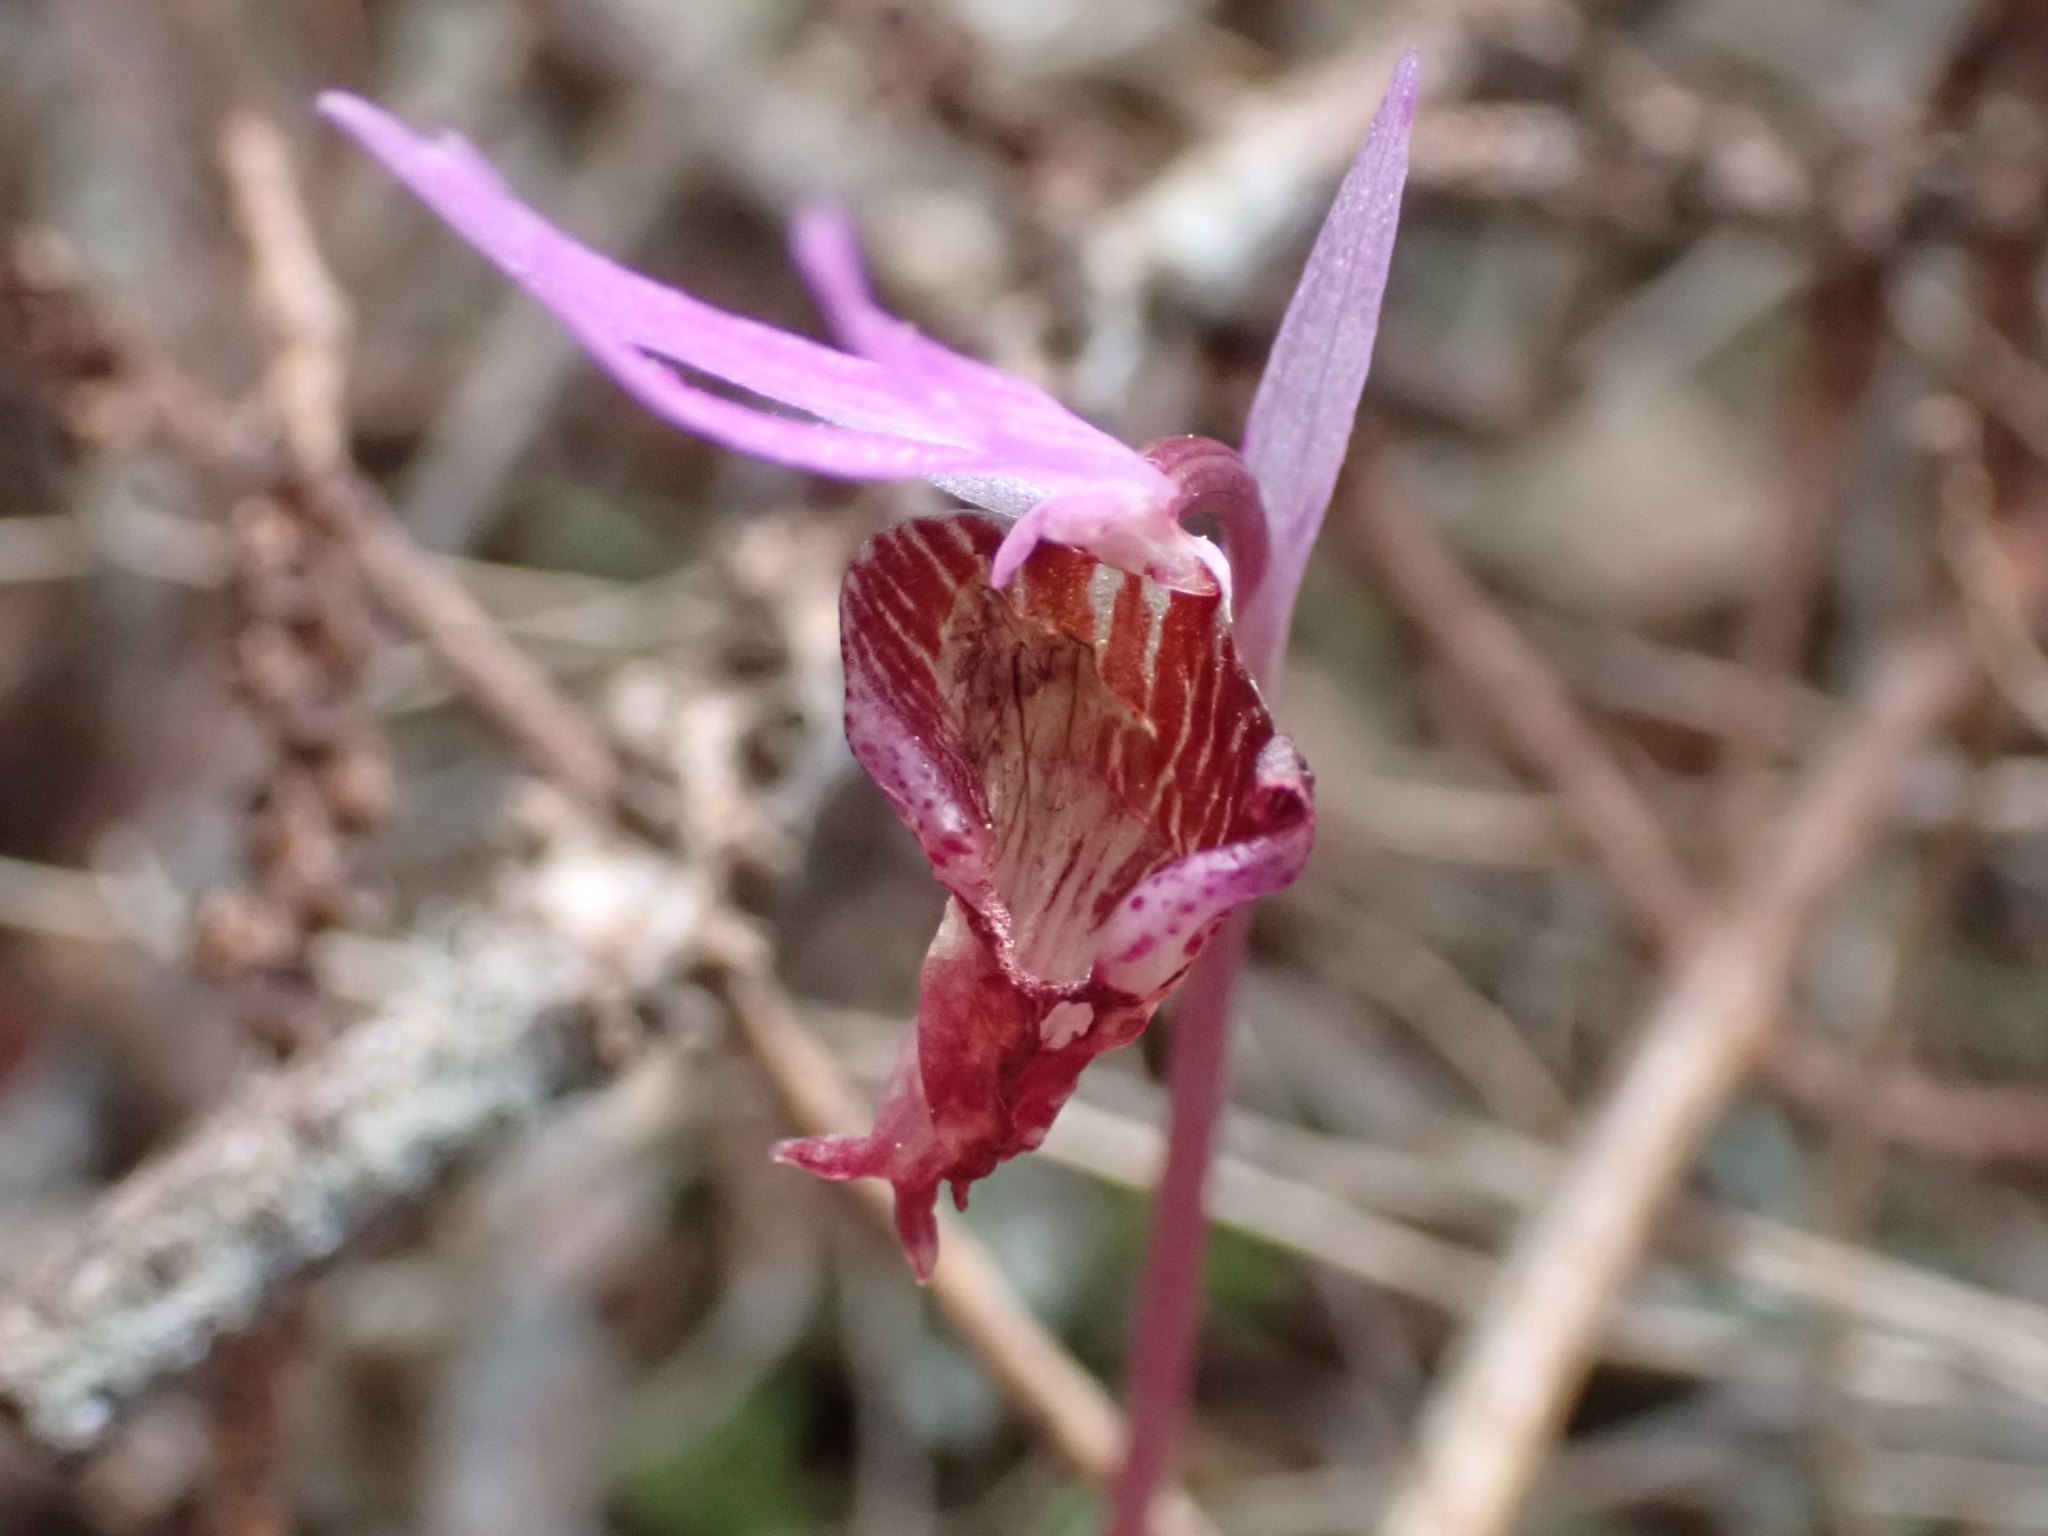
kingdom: Plantae
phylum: Tracheophyta
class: Liliopsida
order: Asparagales
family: Orchidaceae
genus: Calypso
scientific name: Calypso bulbosa
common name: Calypso
